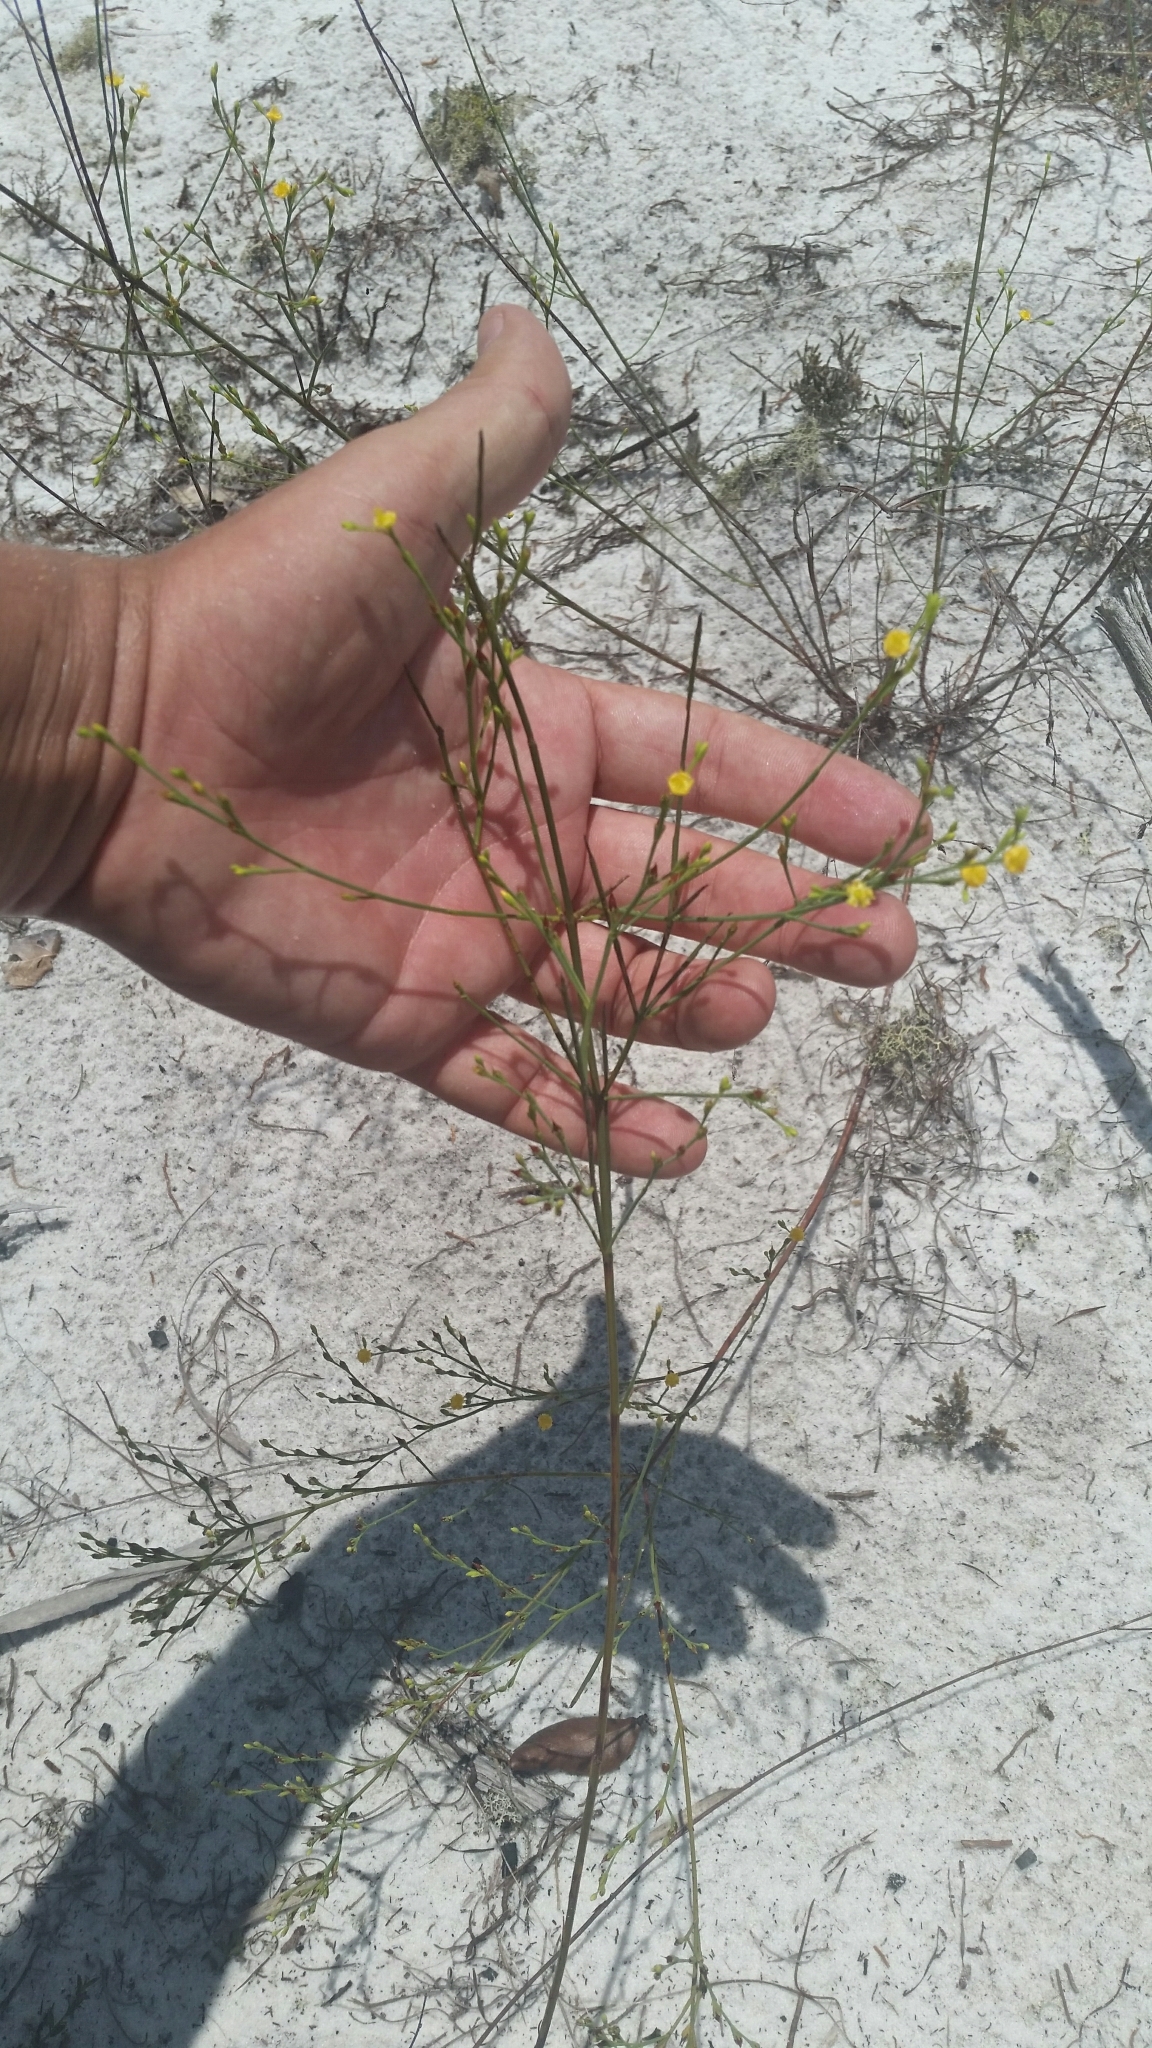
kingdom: Plantae
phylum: Tracheophyta
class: Magnoliopsida
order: Malpighiales
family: Hypericaceae
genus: Hypericum
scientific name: Hypericum cumulicola
